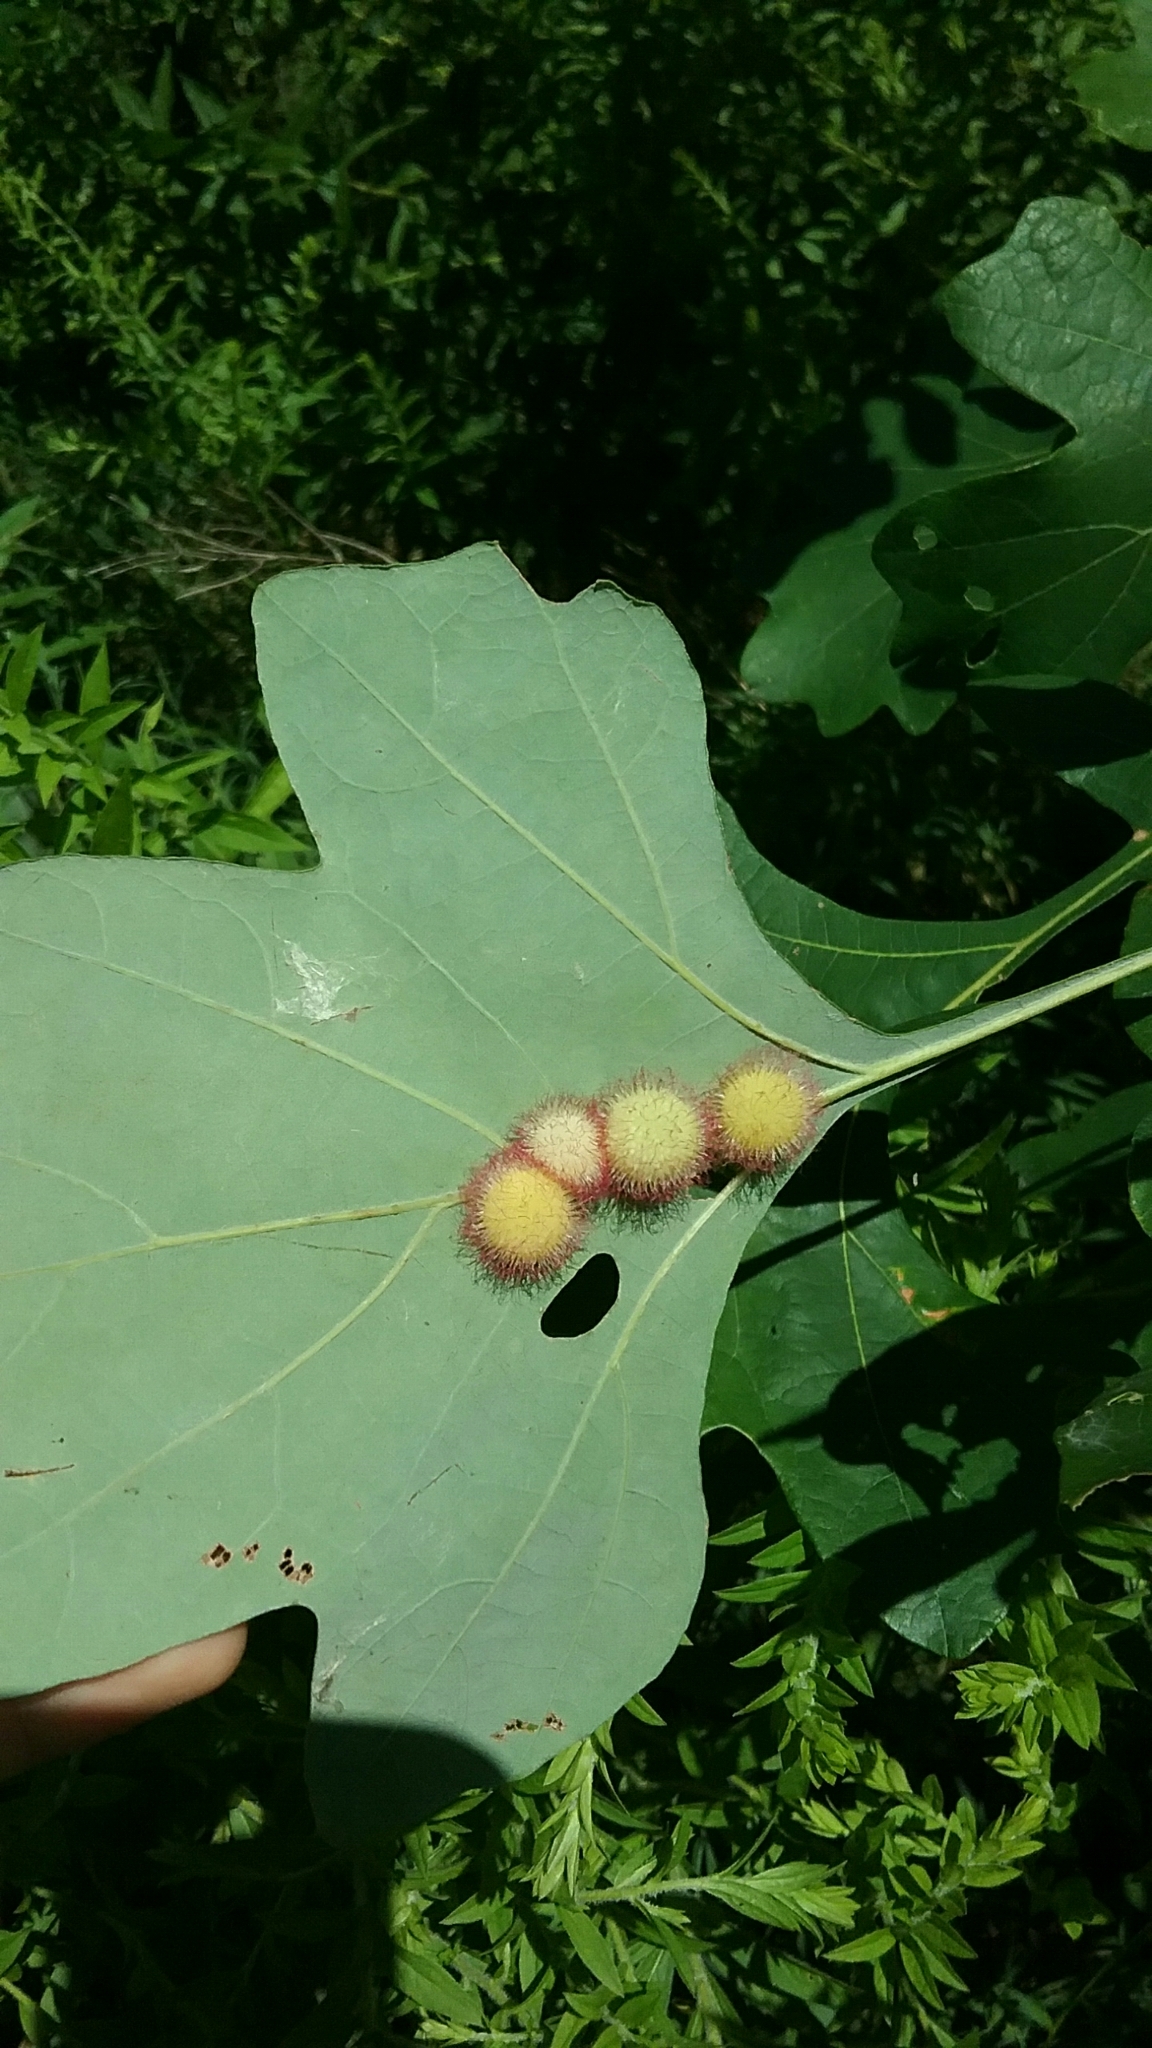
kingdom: Animalia
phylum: Arthropoda
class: Insecta
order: Hymenoptera
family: Cynipidae
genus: Acraspis
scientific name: Acraspis villosa
